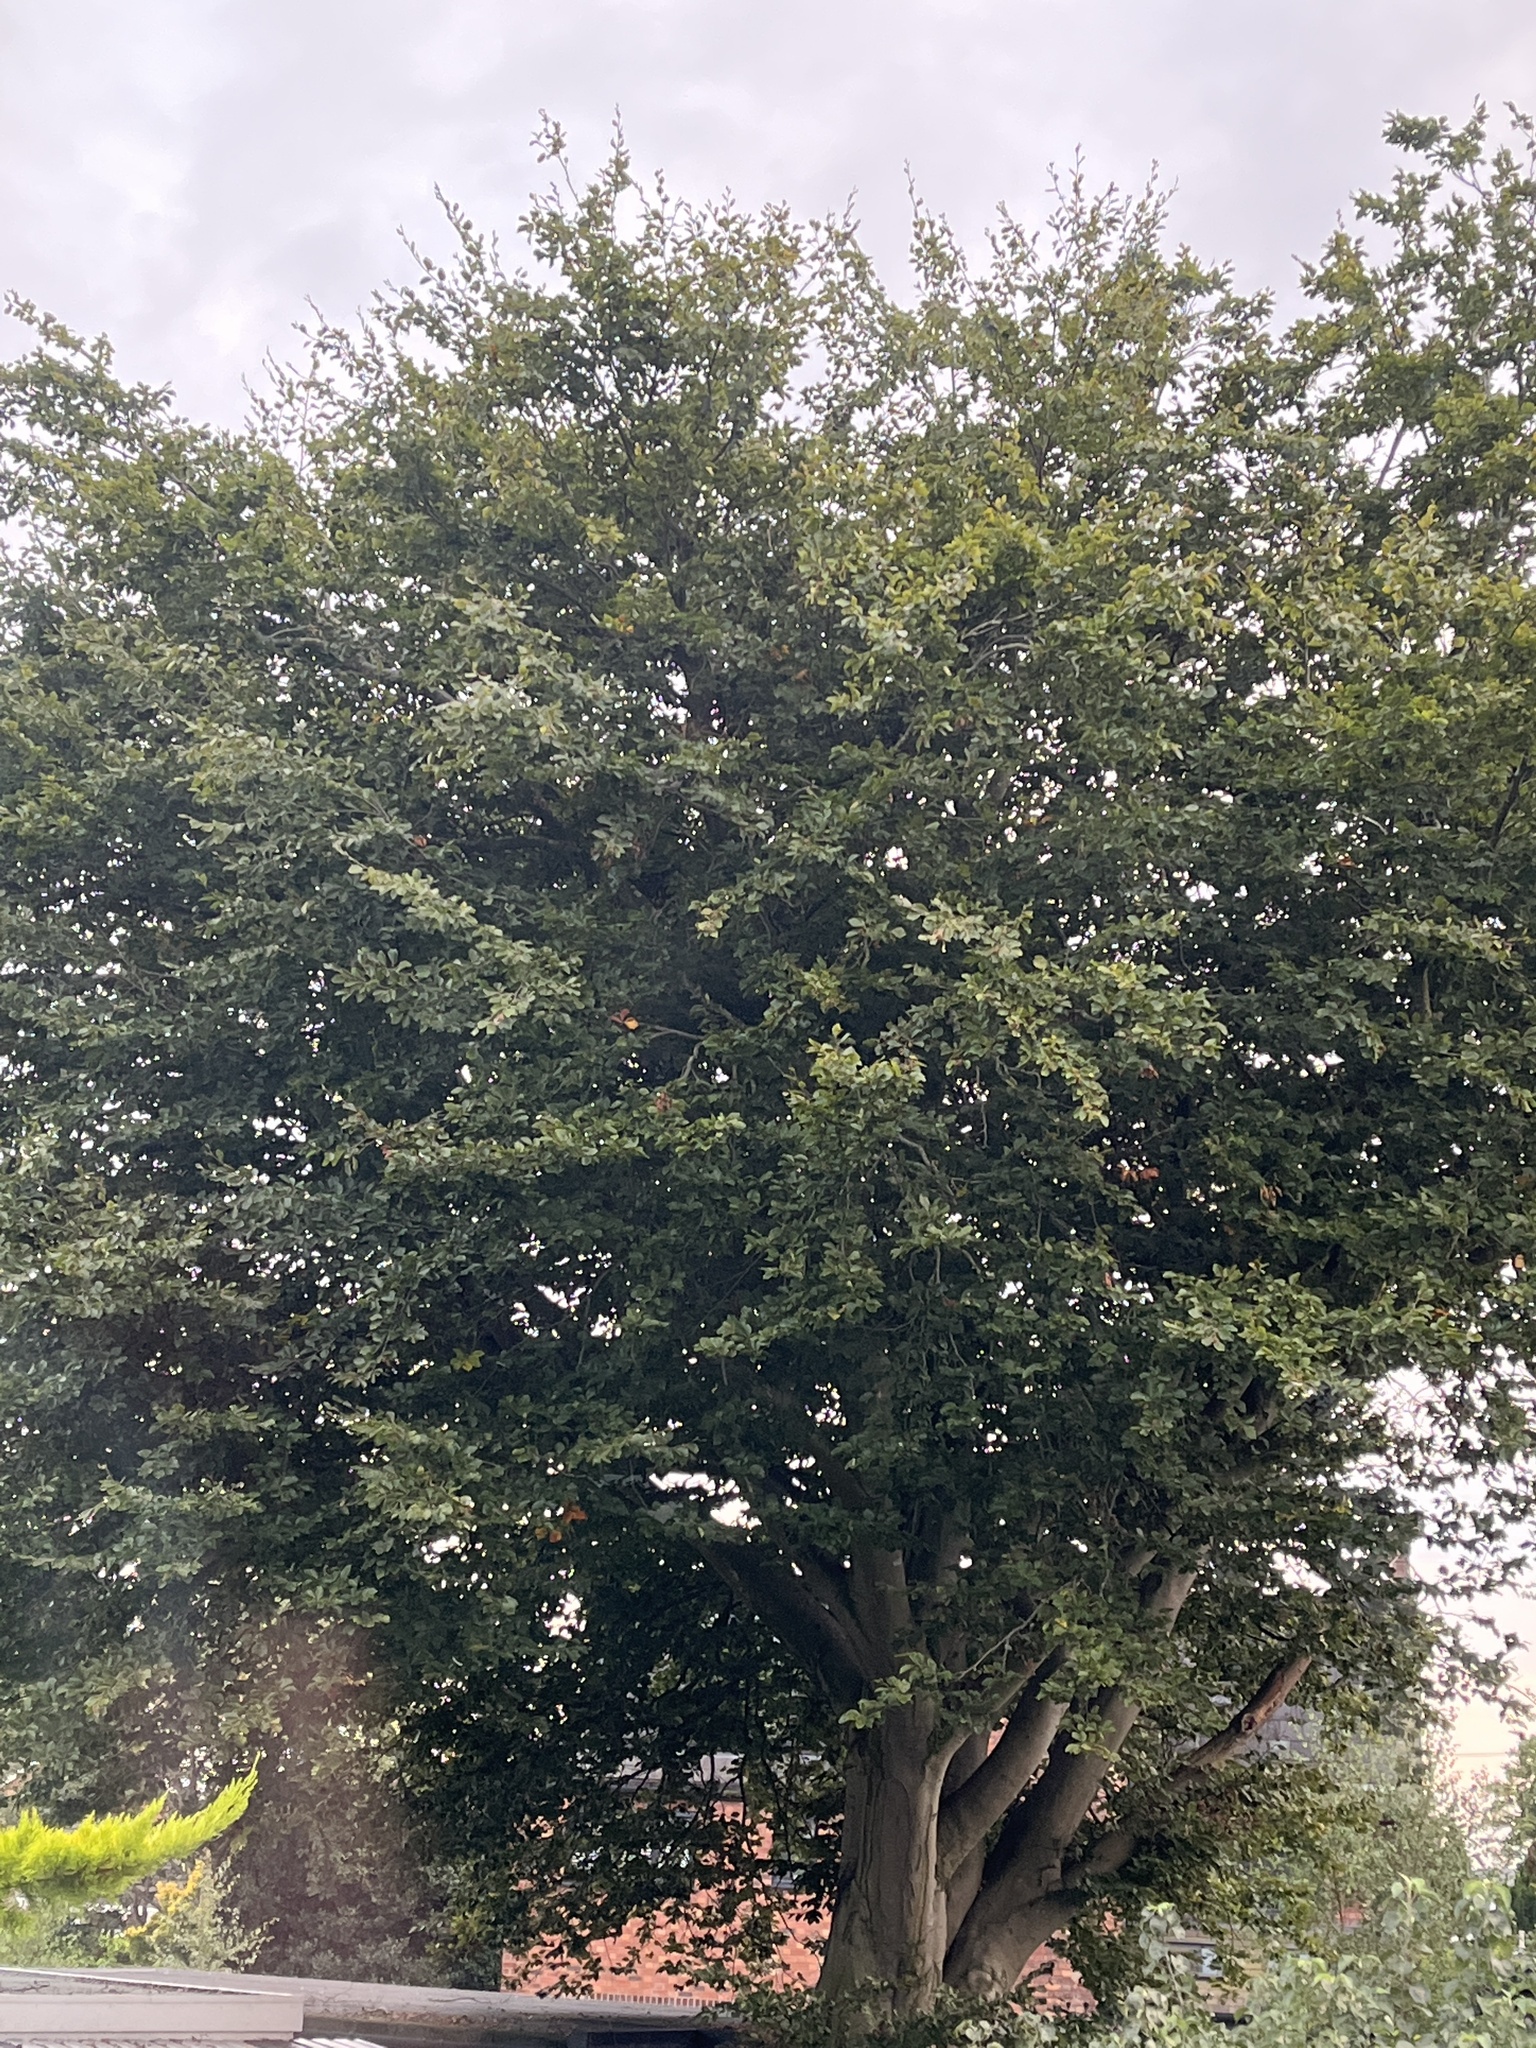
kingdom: Plantae
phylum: Tracheophyta
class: Magnoliopsida
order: Fagales
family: Fagaceae
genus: Fagus
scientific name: Fagus sylvatica
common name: Beech
